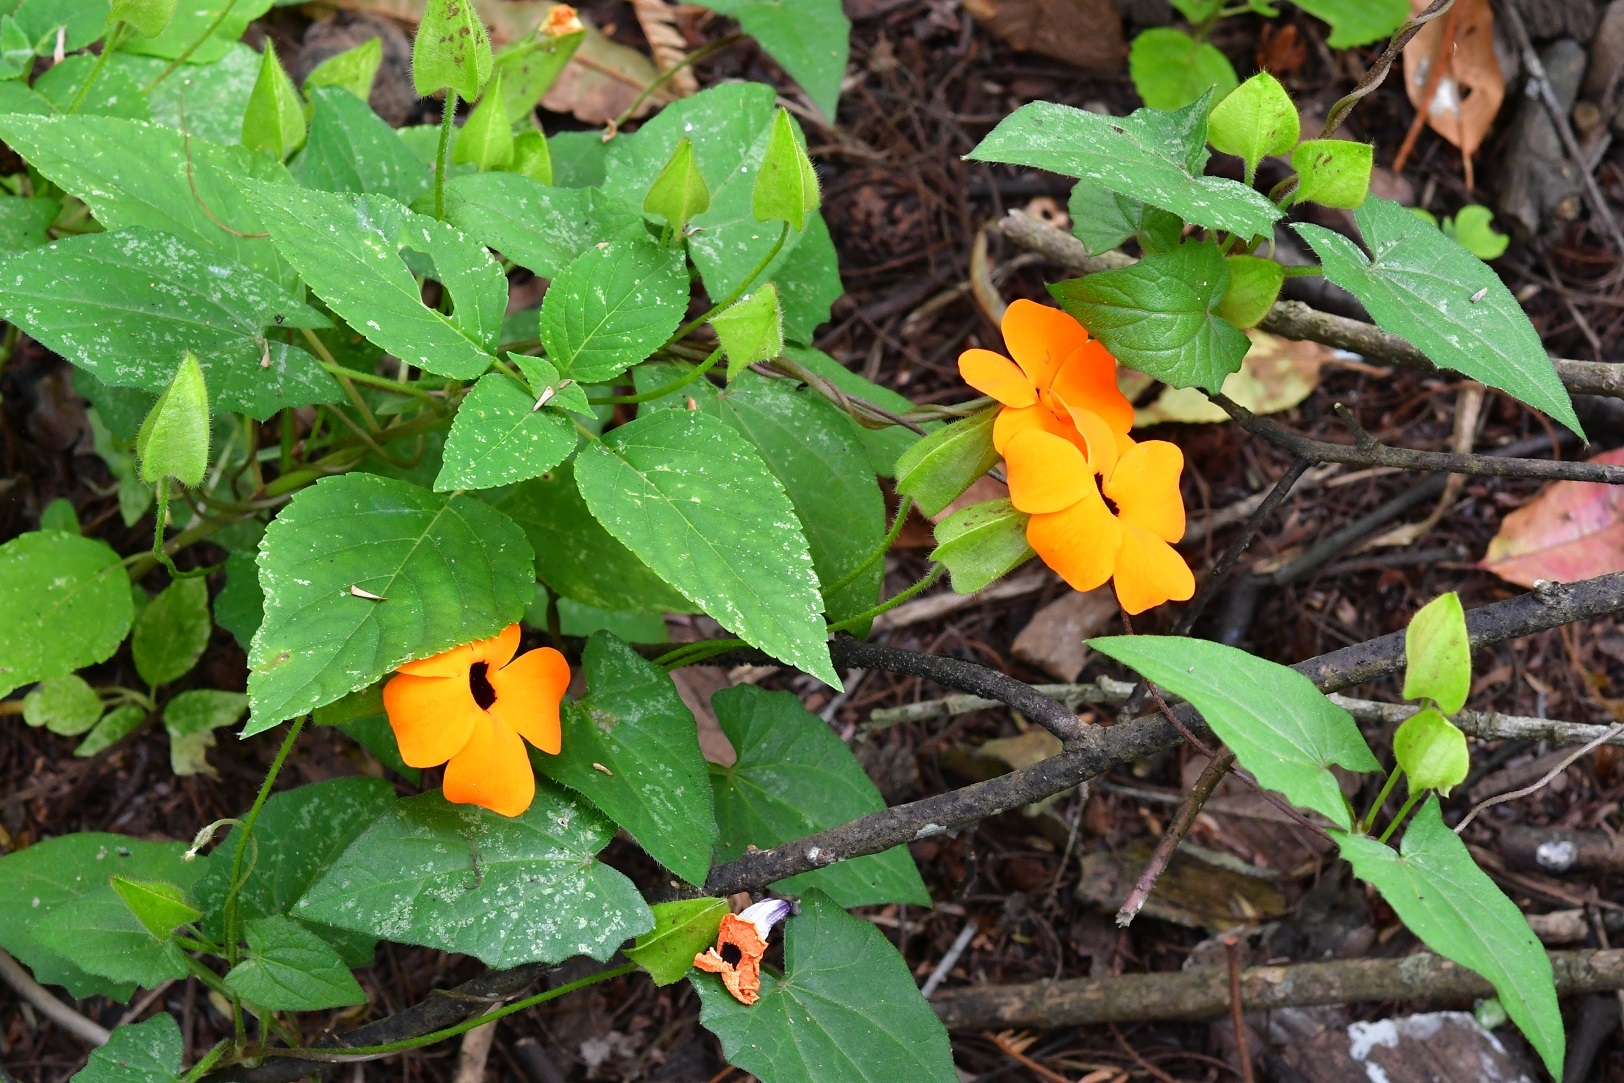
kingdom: Plantae
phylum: Tracheophyta
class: Magnoliopsida
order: Lamiales
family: Acanthaceae
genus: Thunbergia
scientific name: Thunbergia alata
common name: Blackeyed susan vine
